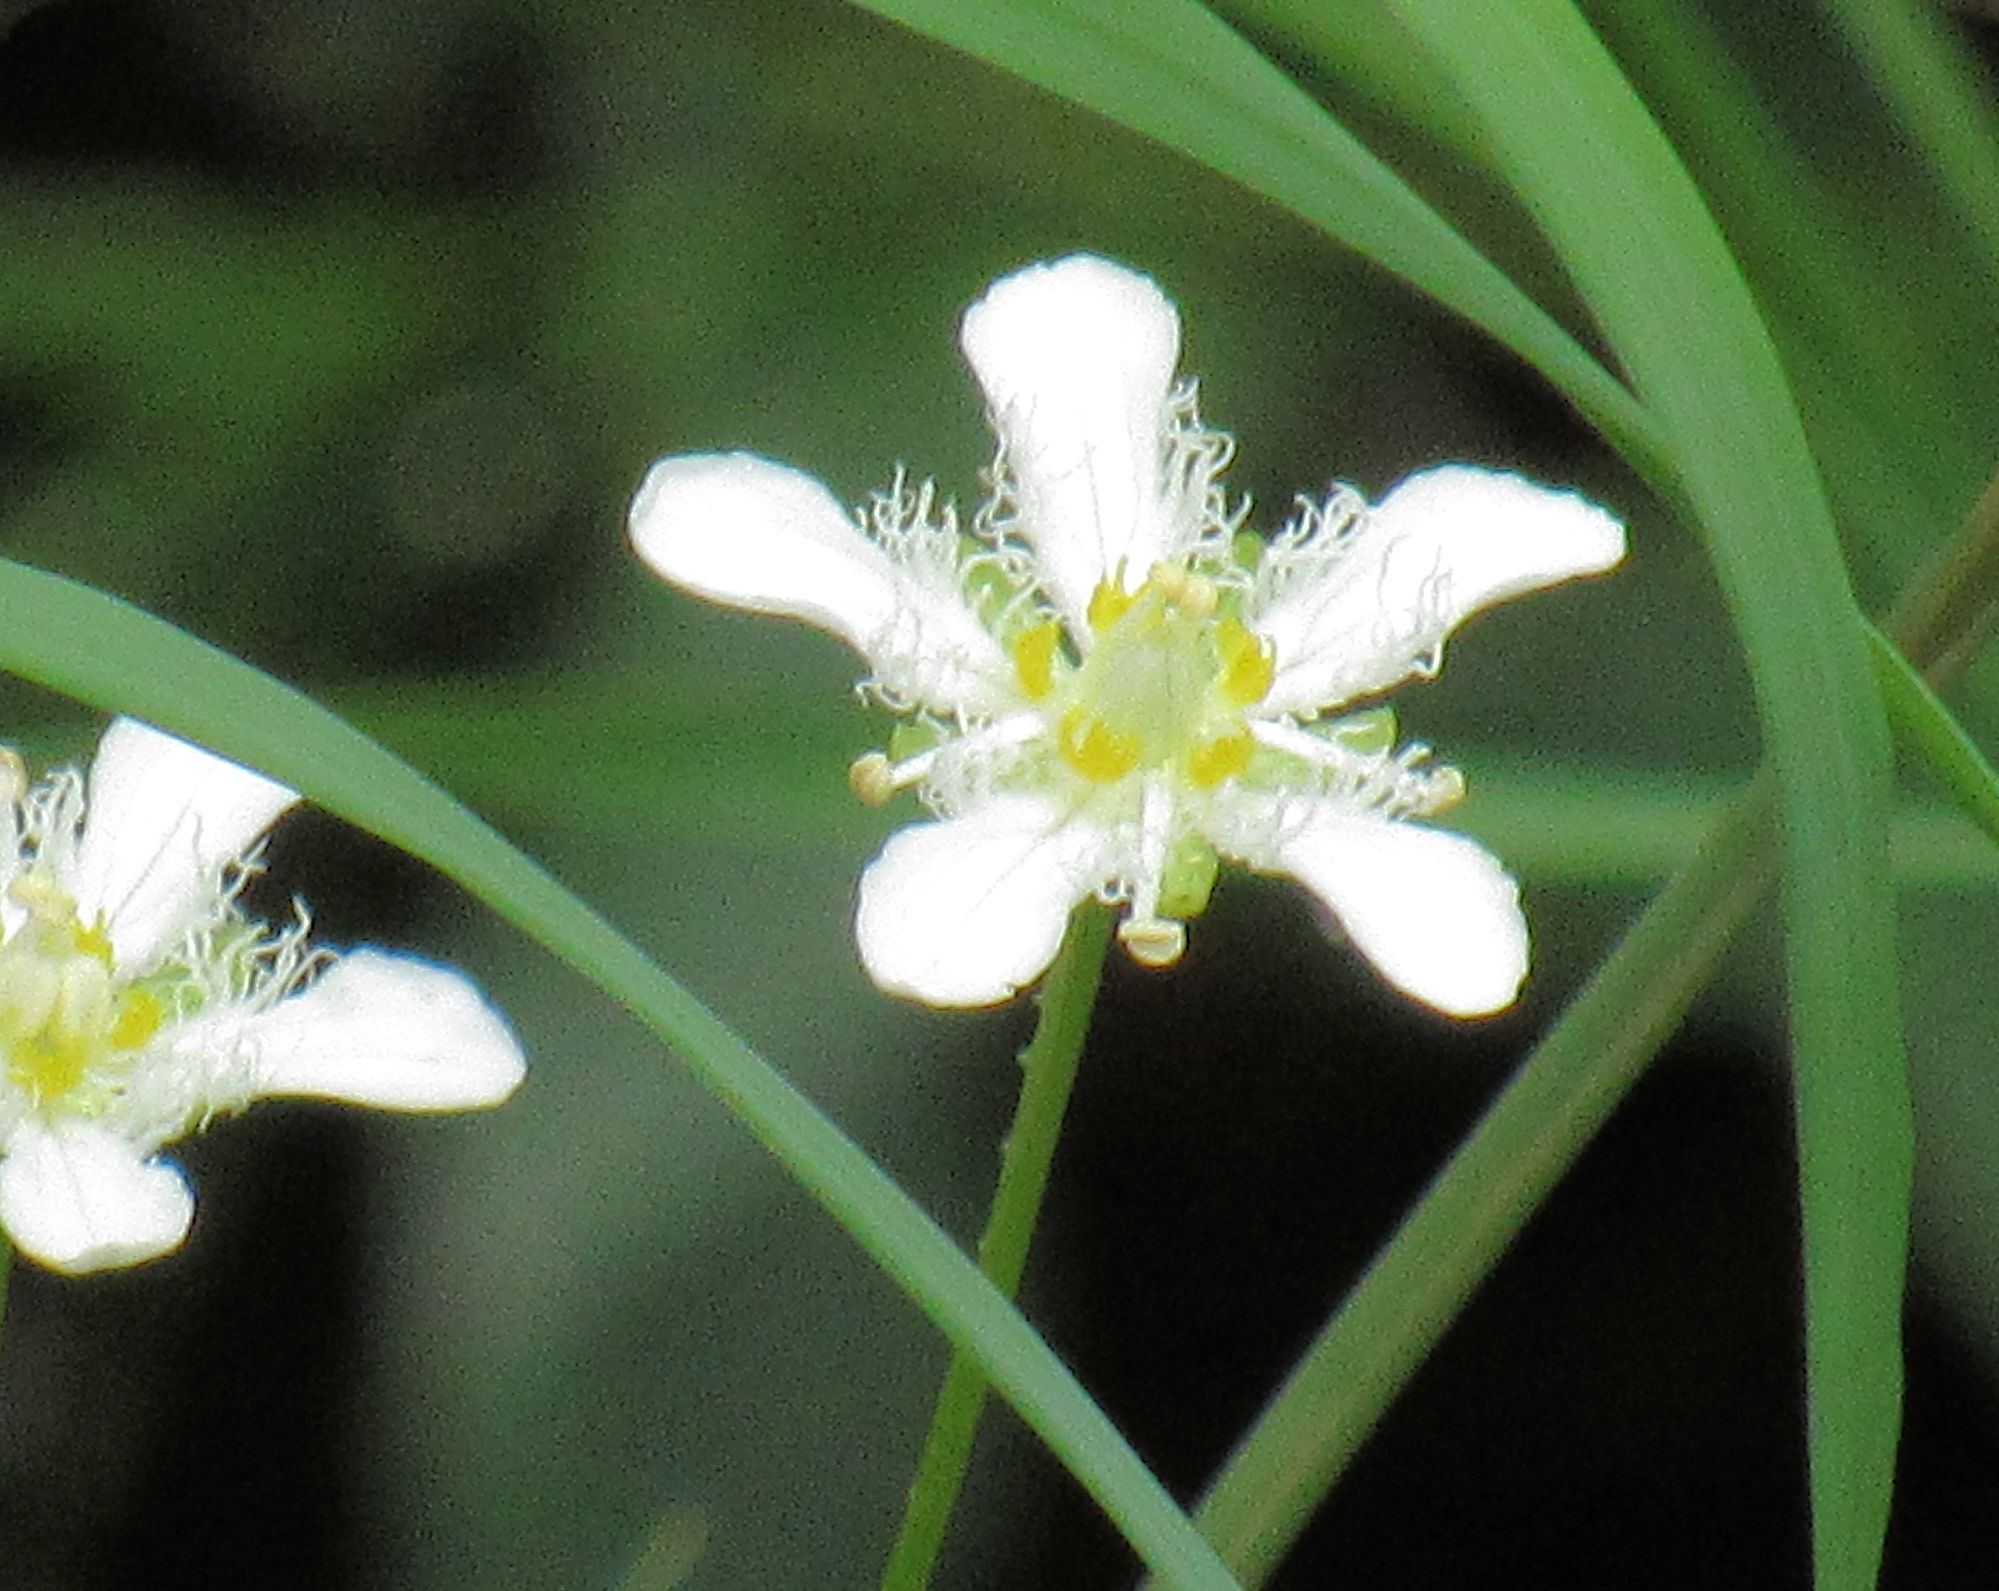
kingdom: Plantae
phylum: Tracheophyta
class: Magnoliopsida
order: Celastrales
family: Parnassiaceae
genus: Parnassia
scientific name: Parnassia fimbriata
